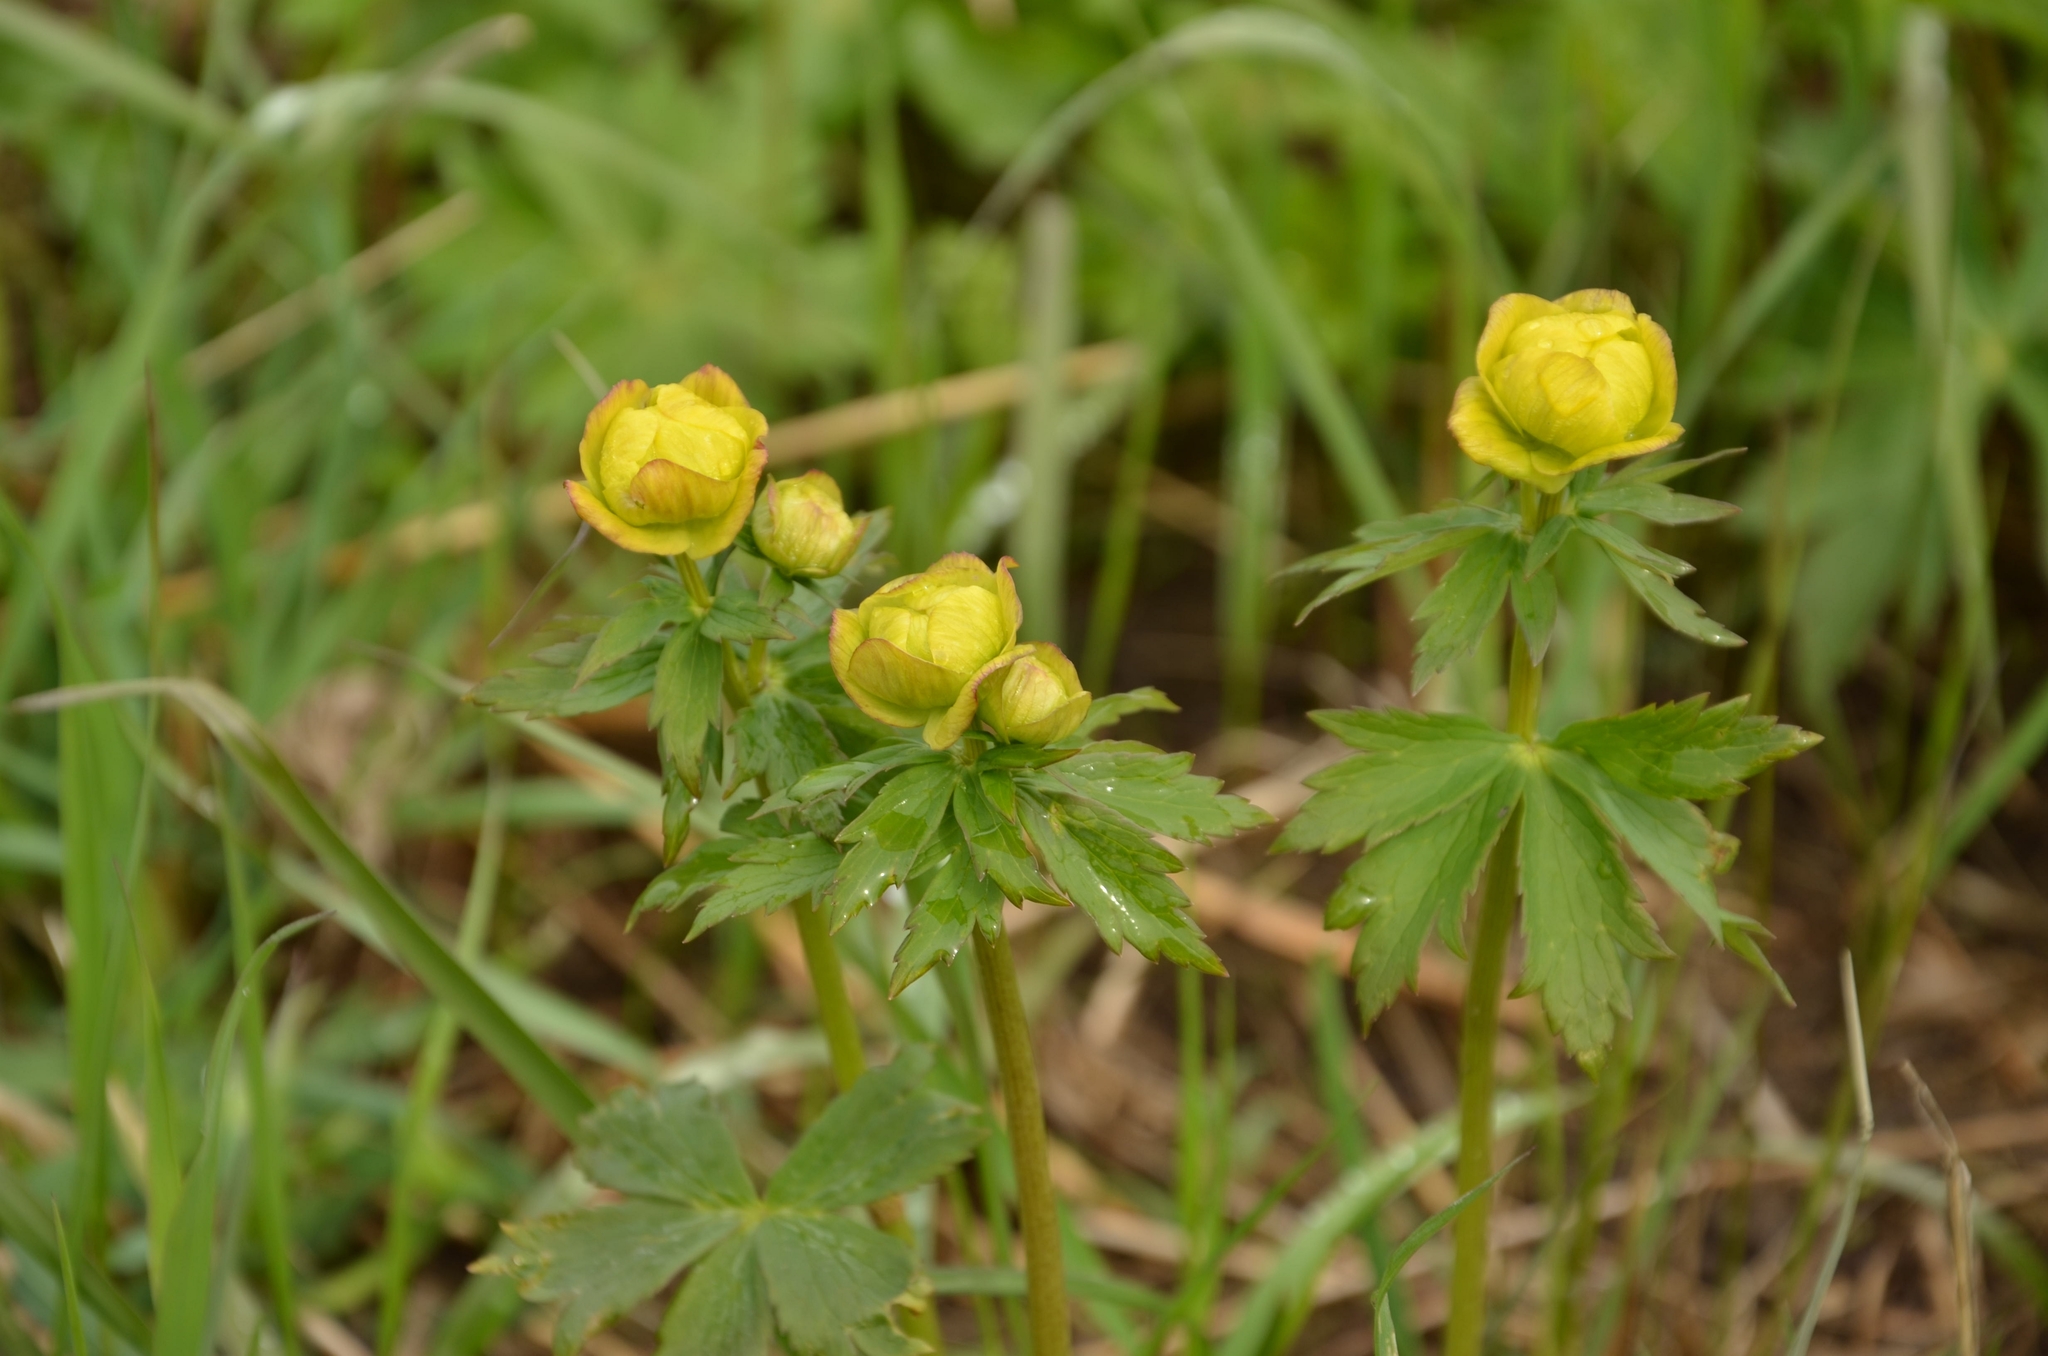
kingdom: Plantae
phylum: Tracheophyta
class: Magnoliopsida
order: Ranunculales
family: Ranunculaceae
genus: Trollius
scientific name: Trollius europaeus
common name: European globeflower
